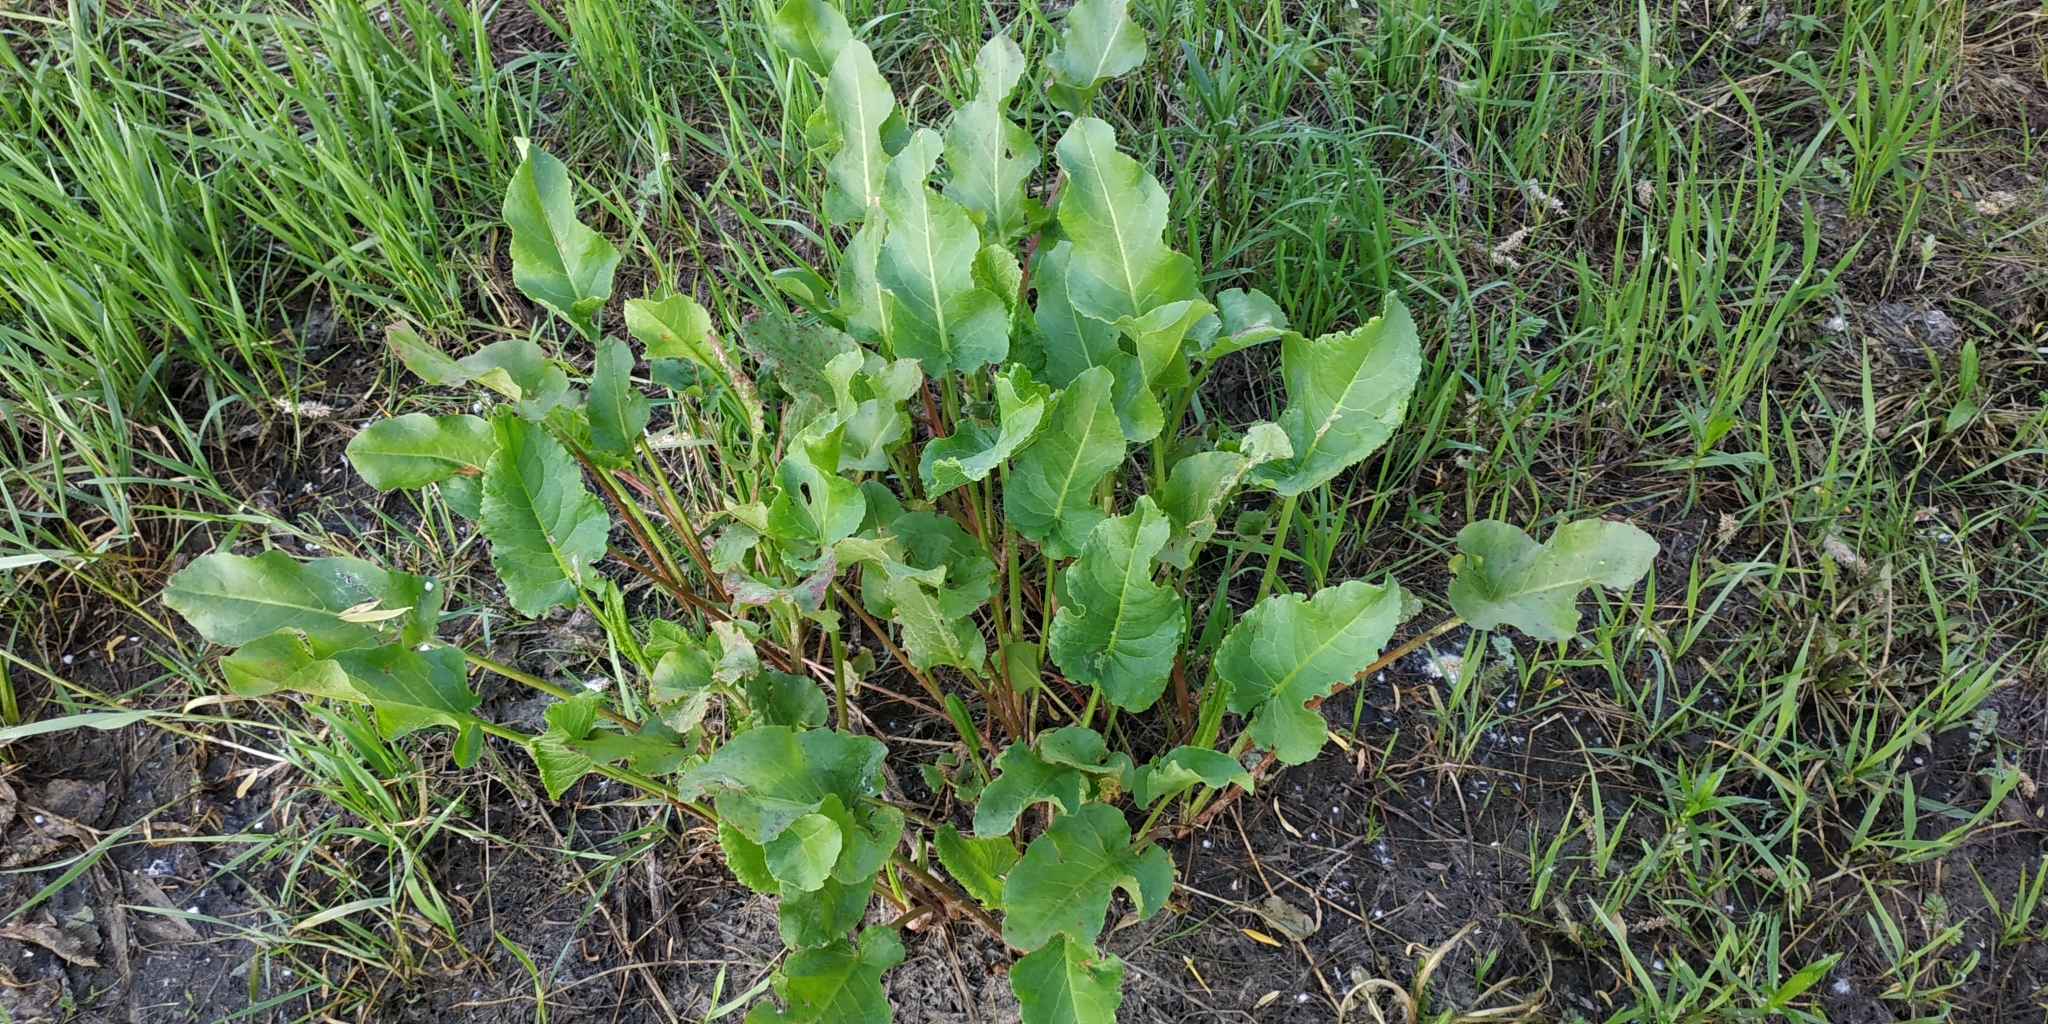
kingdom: Plantae
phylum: Tracheophyta
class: Magnoliopsida
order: Caryophyllales
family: Polygonaceae
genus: Rumex
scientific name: Rumex confertus
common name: Russian dock
